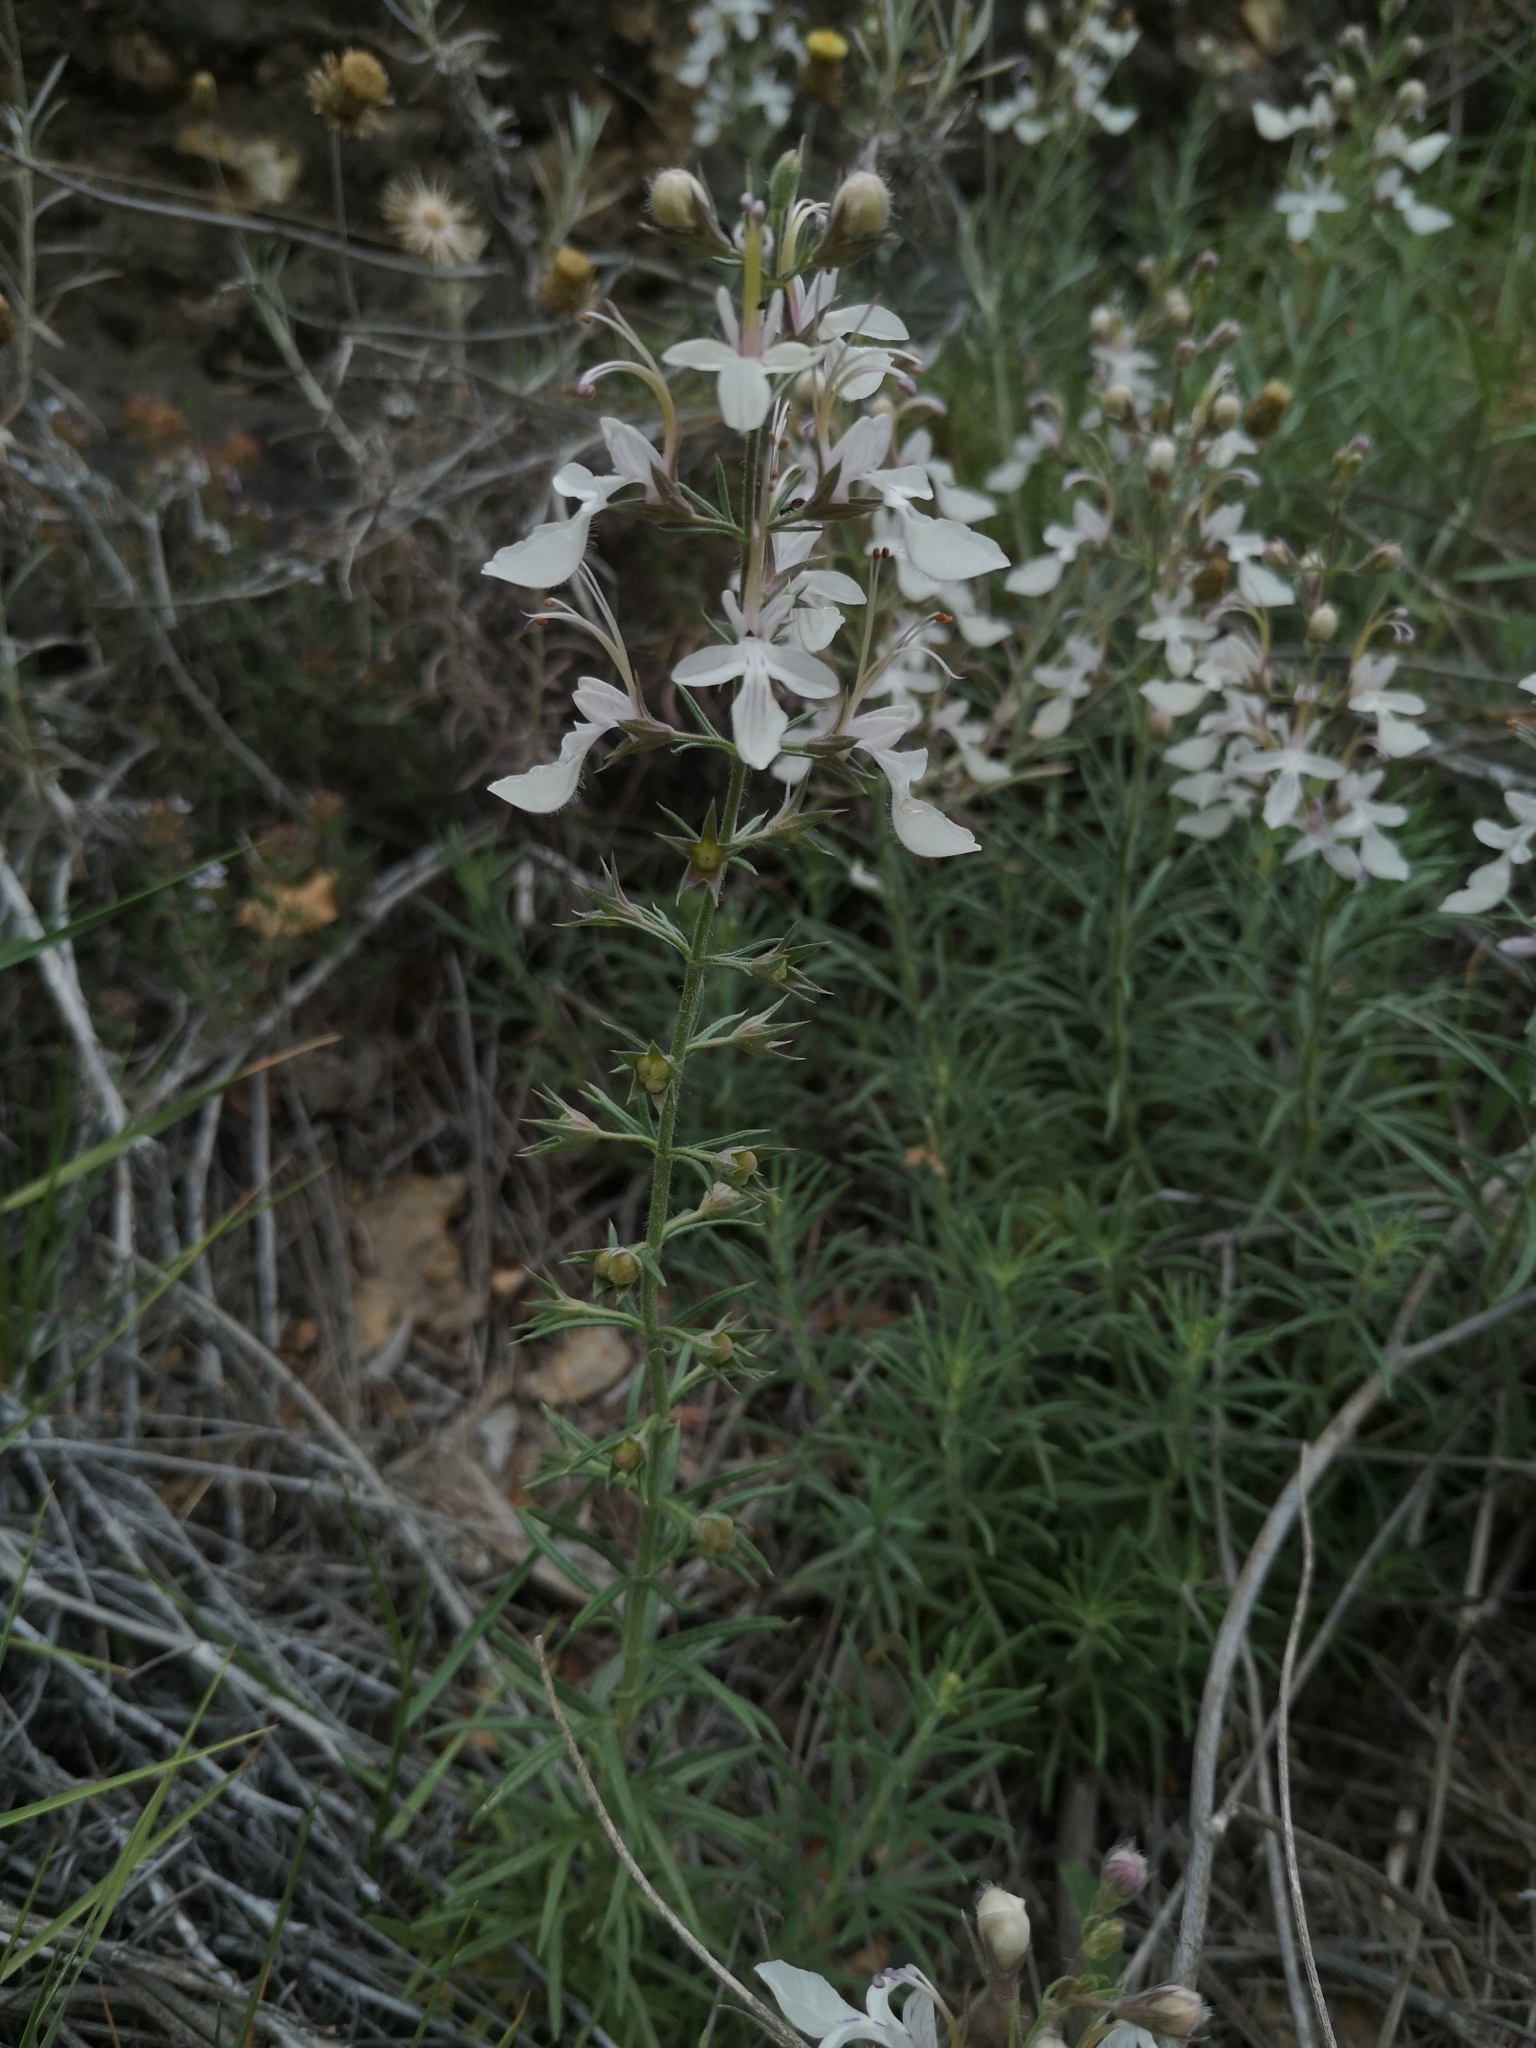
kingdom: Plantae
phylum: Tracheophyta
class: Magnoliopsida
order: Lamiales
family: Lamiaceae
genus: Teucrium
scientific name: Teucrium pseudochamaepitys
